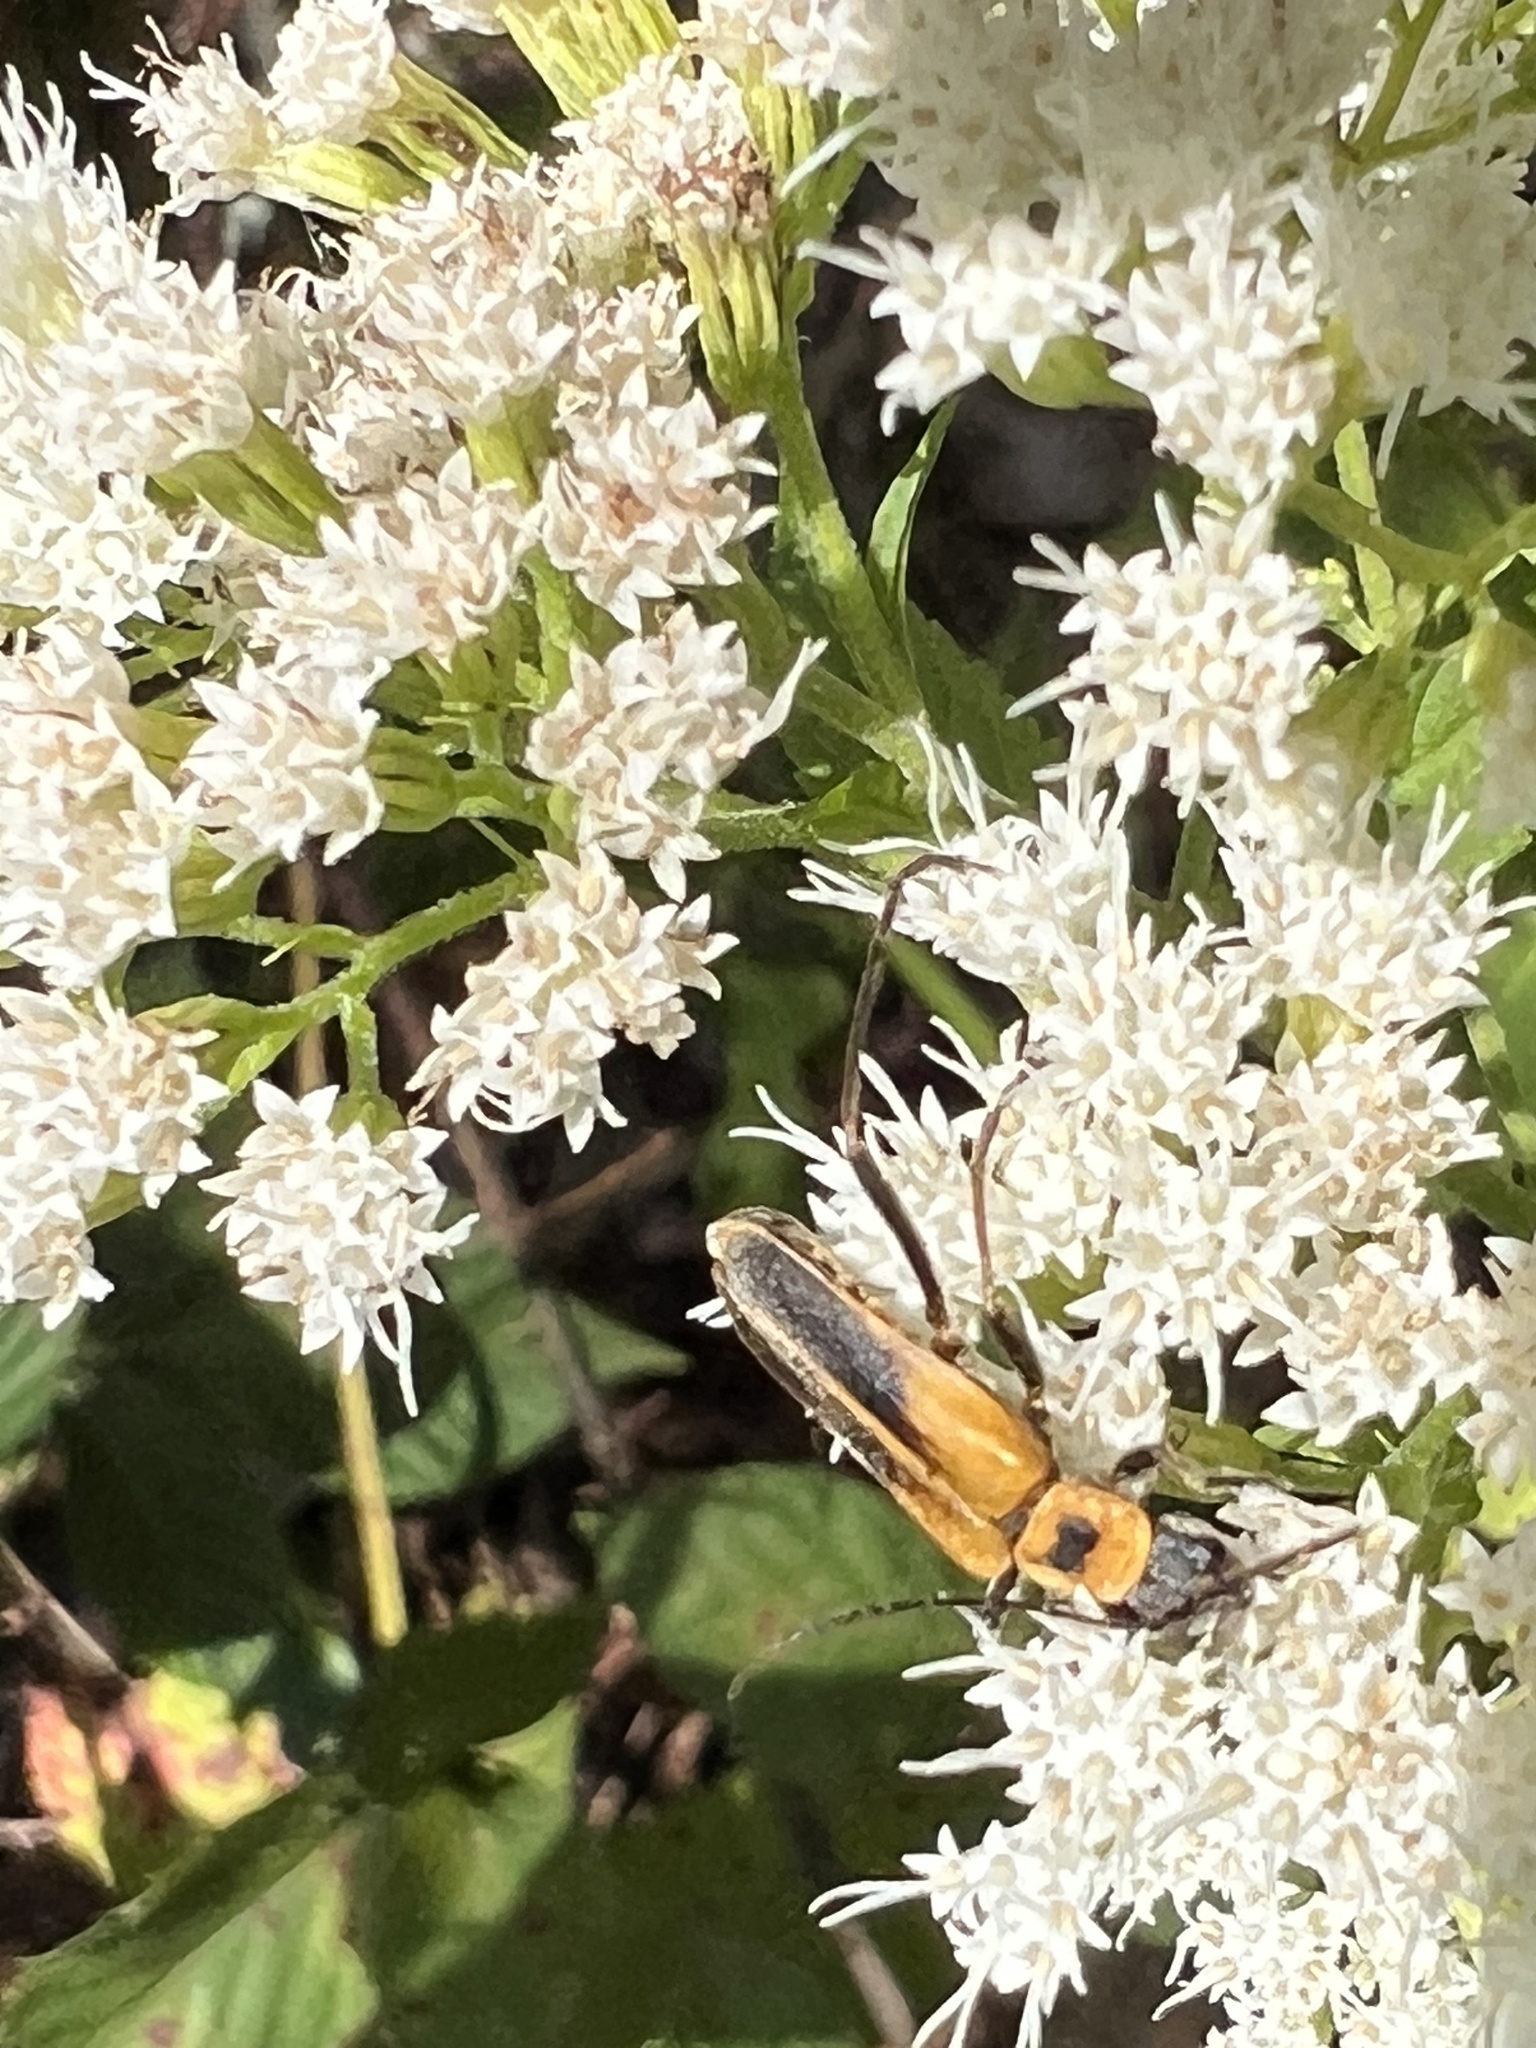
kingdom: Animalia
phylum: Arthropoda
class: Insecta
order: Coleoptera
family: Cantharidae
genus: Chauliognathus
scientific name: Chauliognathus pensylvanicus
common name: Goldenrod soldier beetle
